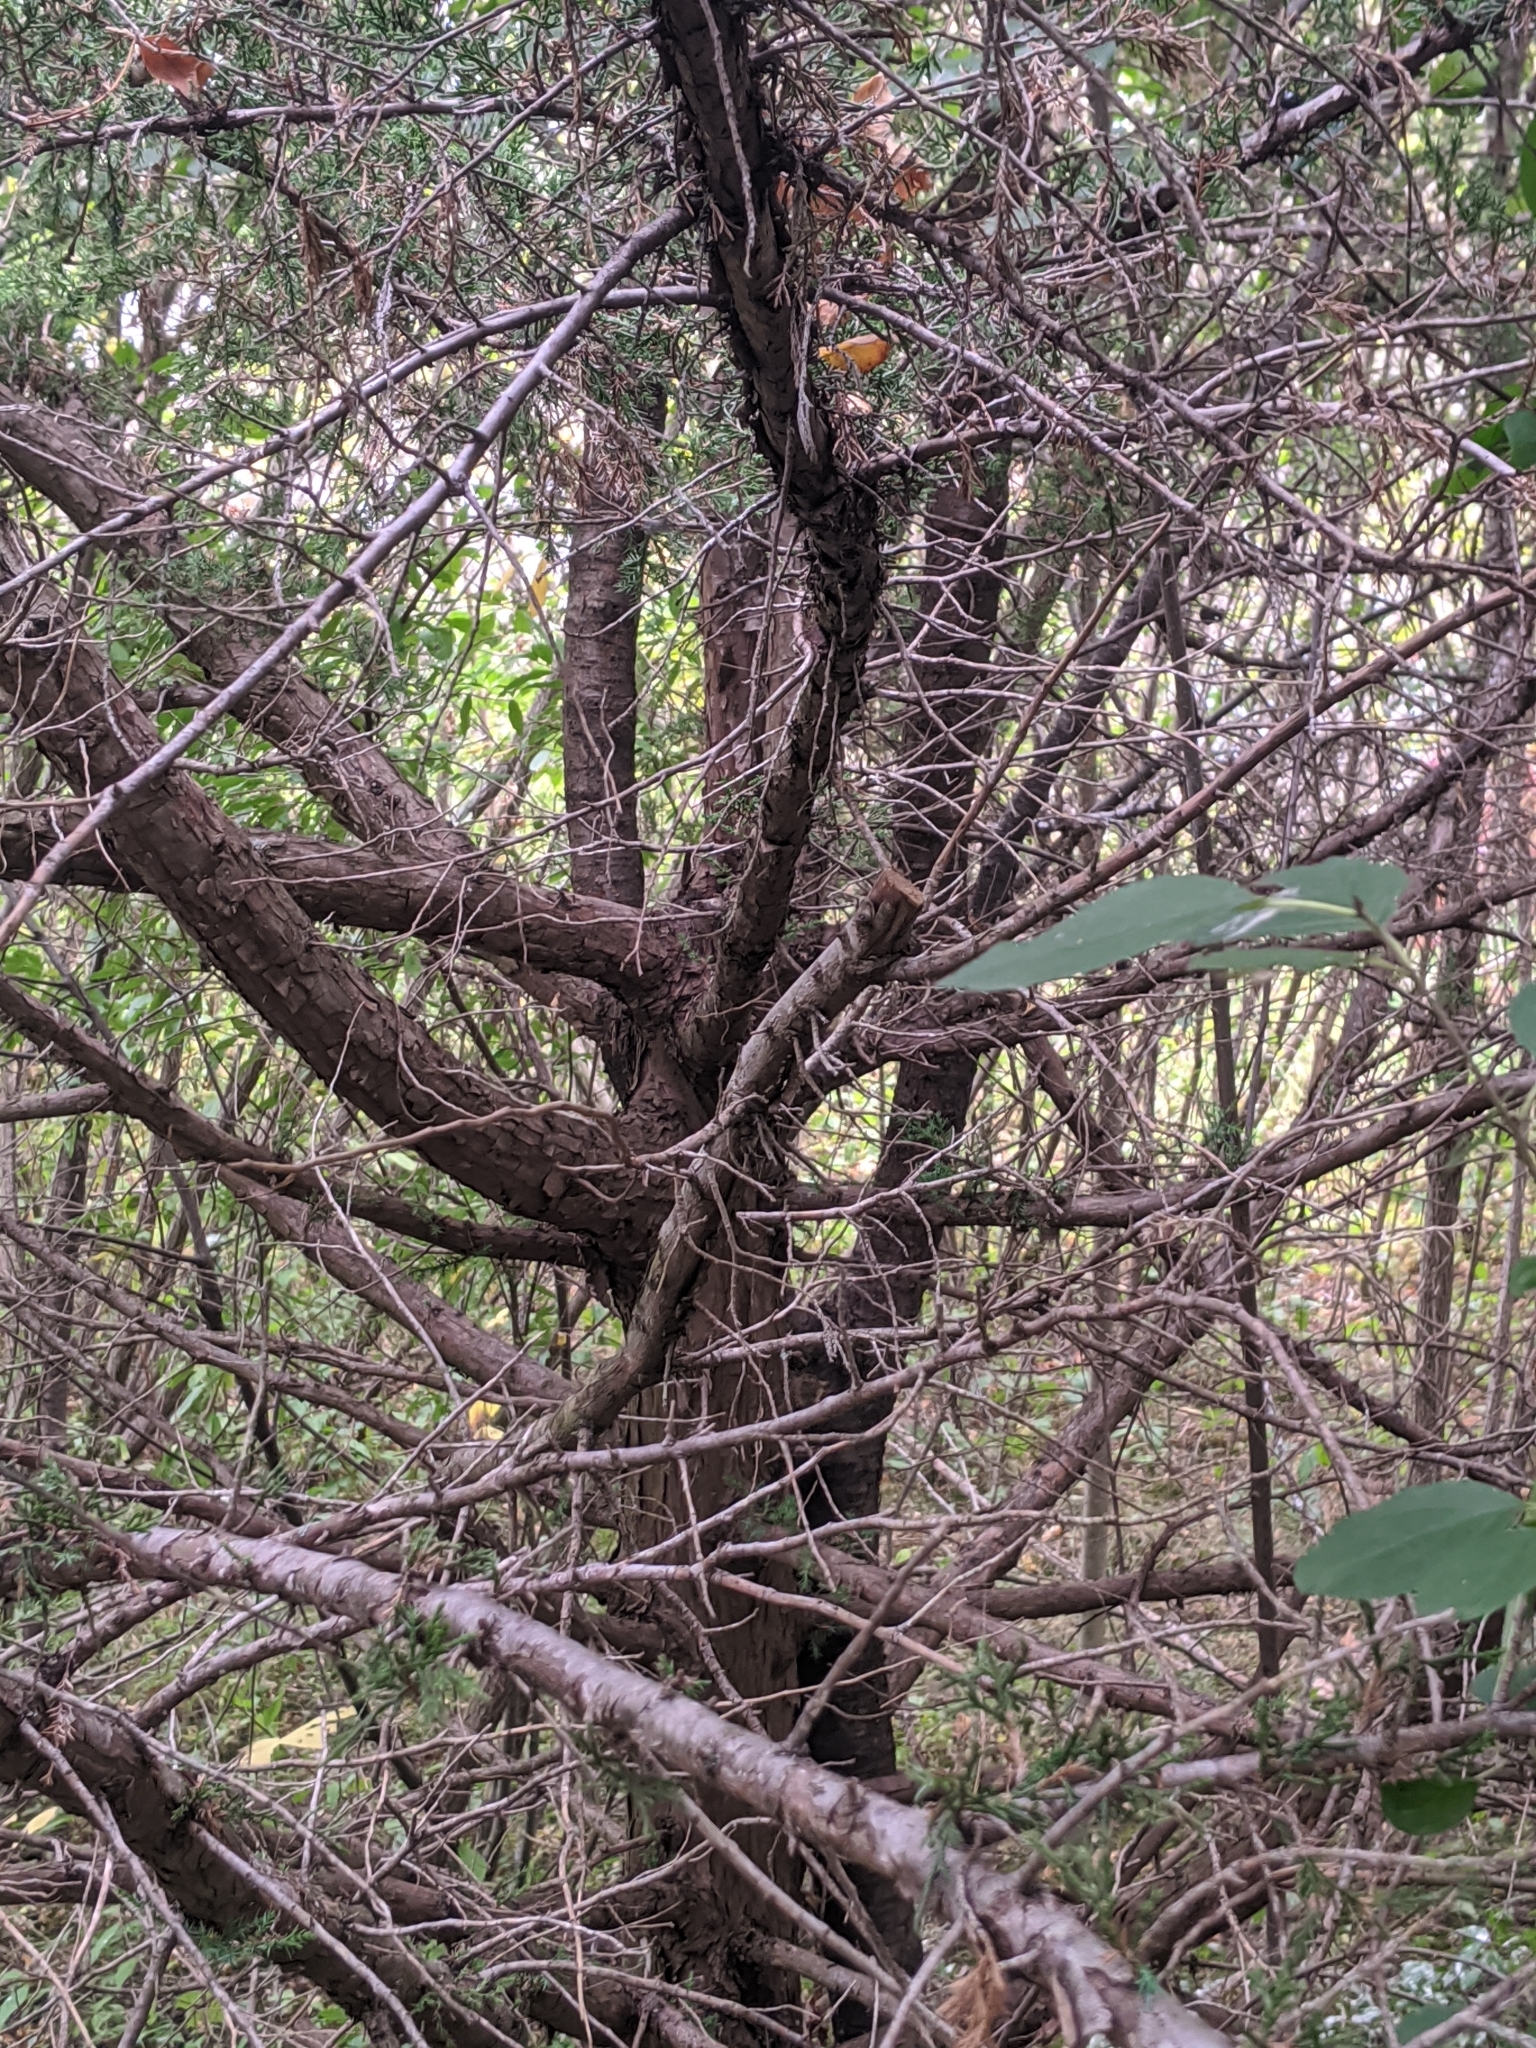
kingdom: Fungi
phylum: Basidiomycota
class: Pucciniomycetes
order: Pucciniales
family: Gymnosporangiaceae
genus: Gymnosporangium
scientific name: Gymnosporangium juniperi-virginianae
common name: Juniper-apple rust
